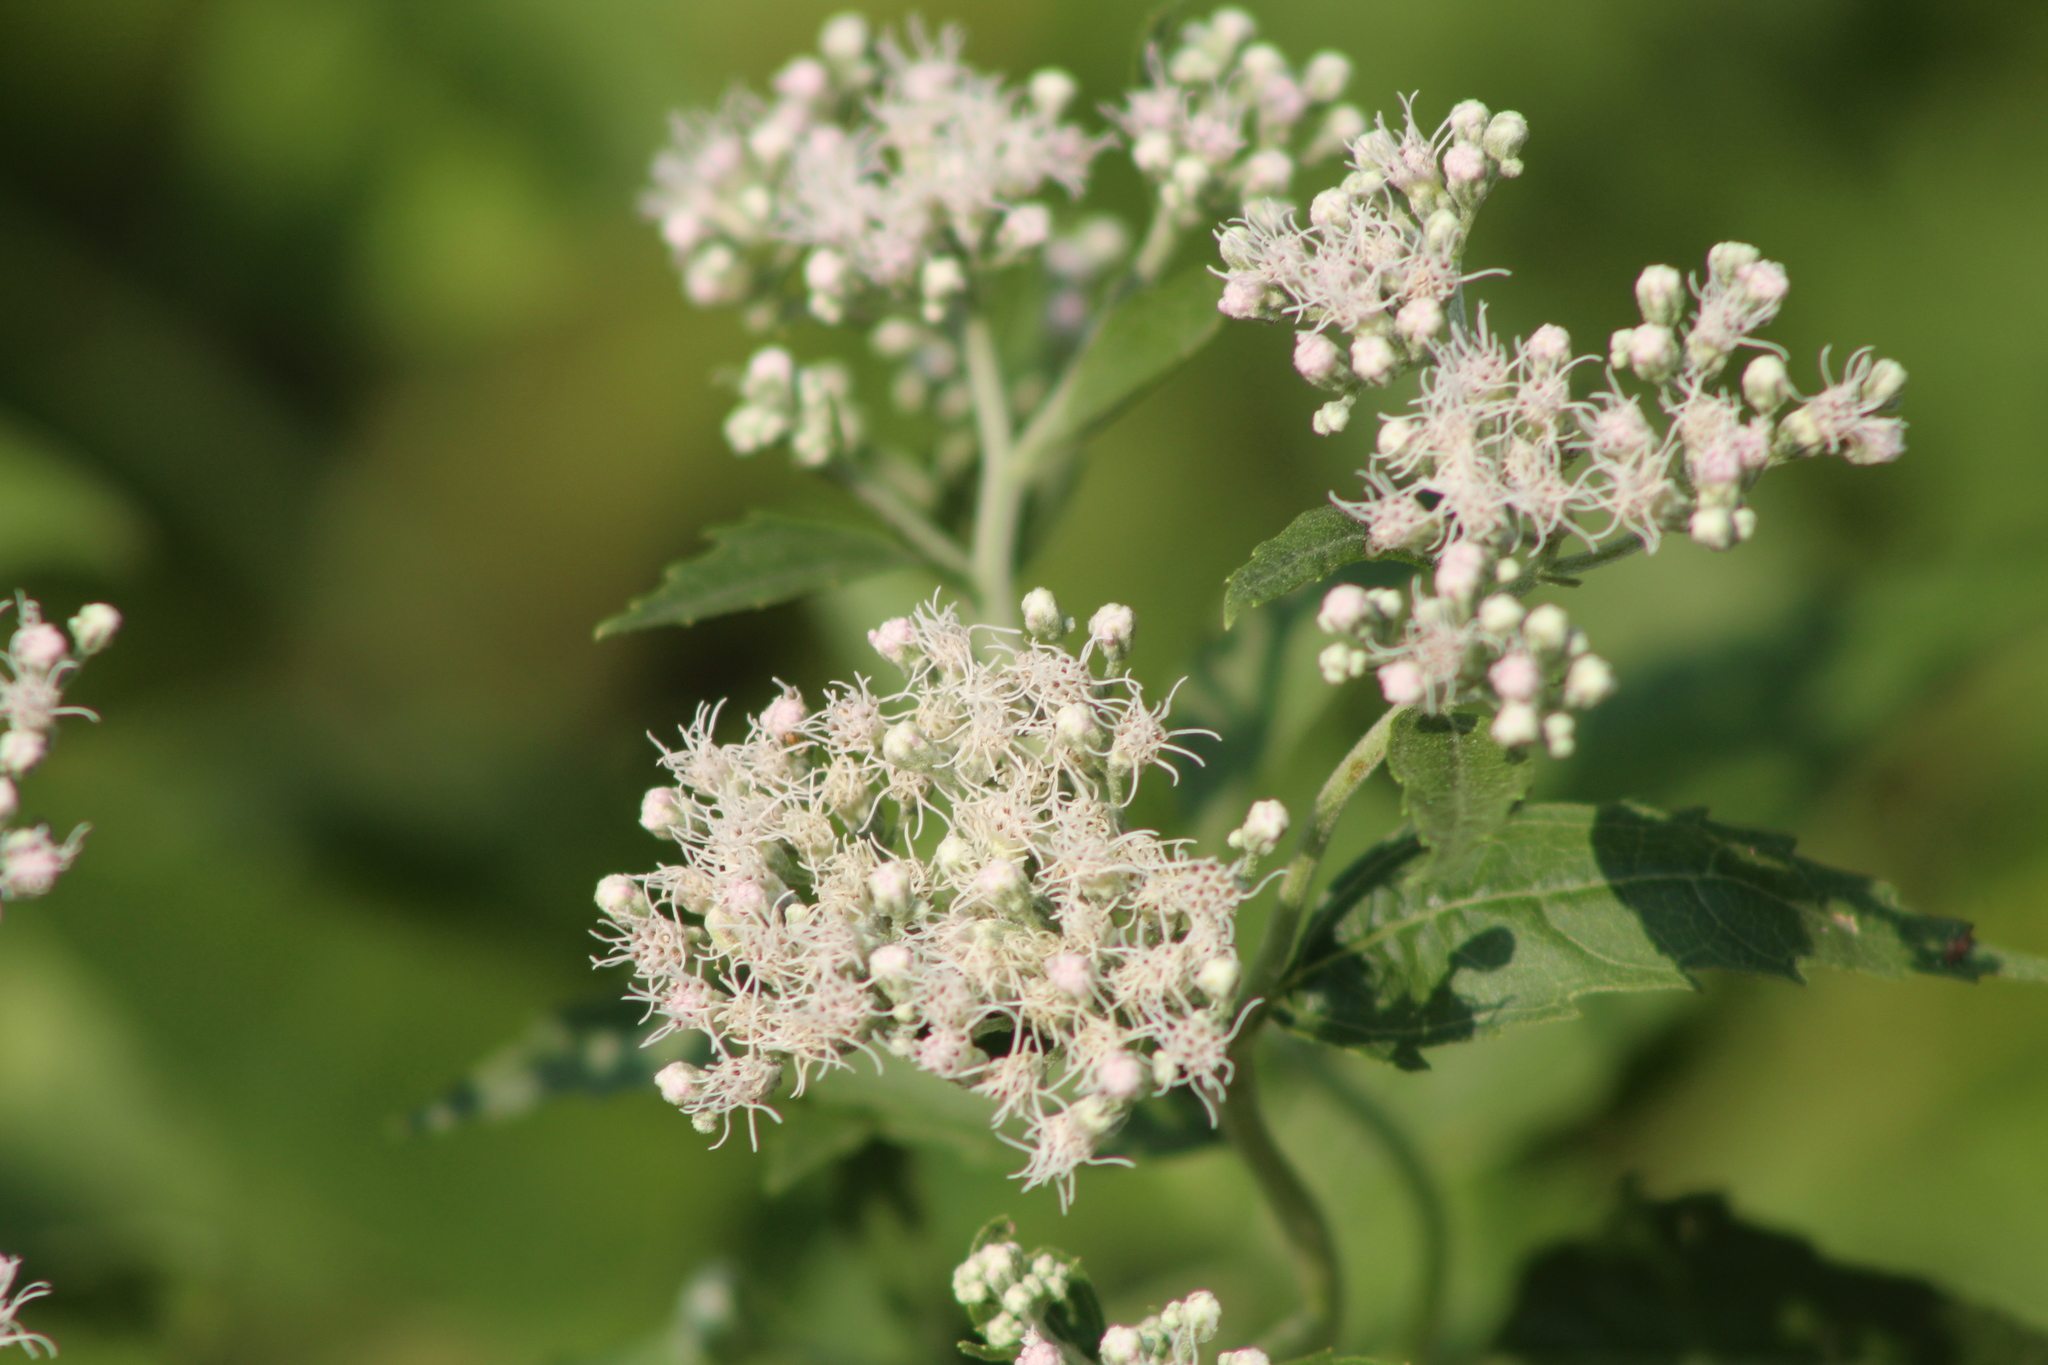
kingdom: Plantae
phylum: Tracheophyta
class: Magnoliopsida
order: Asterales
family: Asteraceae
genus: Eupatorium
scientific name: Eupatorium serotinum
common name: Late boneset
